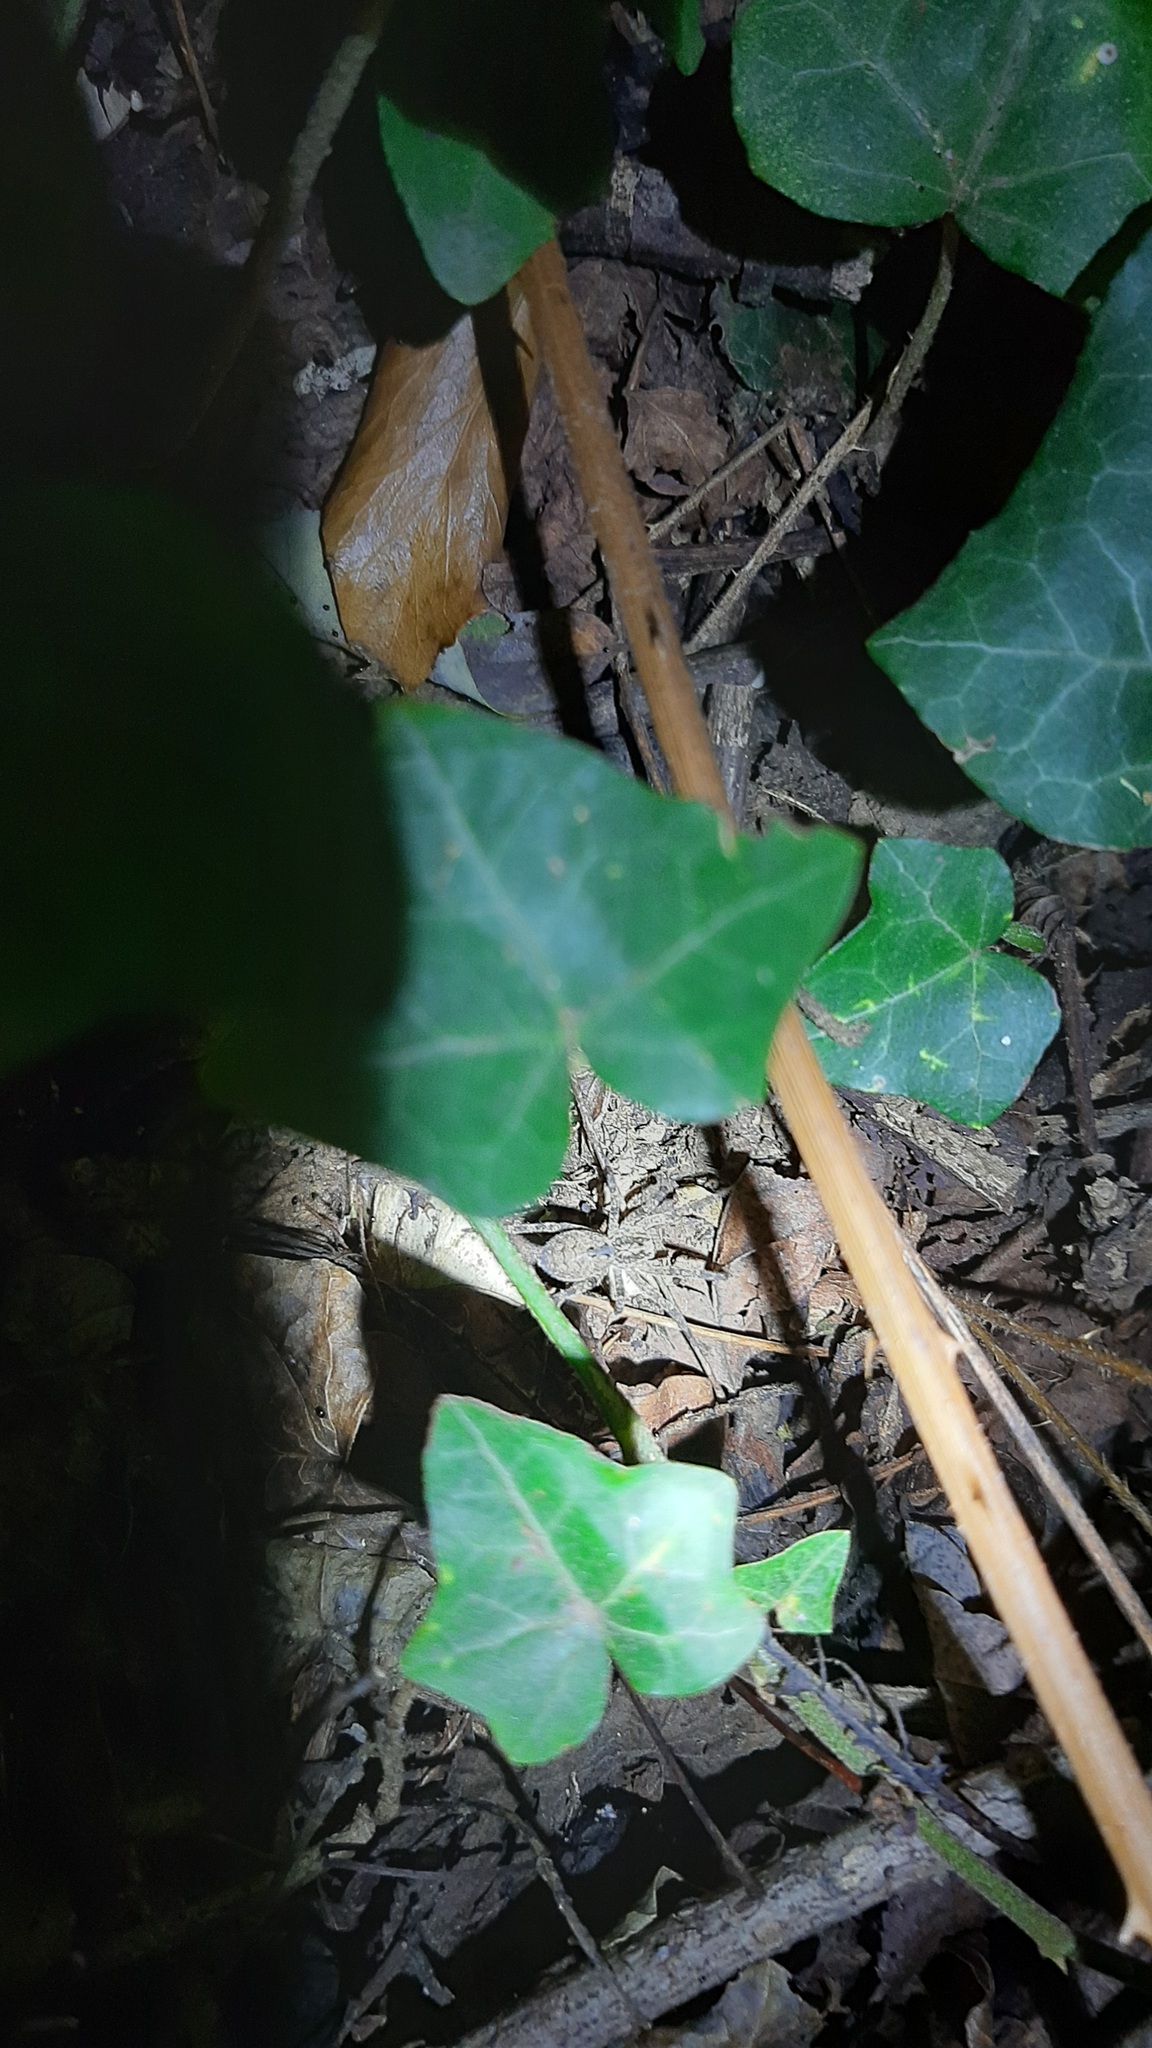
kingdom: Plantae
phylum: Tracheophyta
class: Magnoliopsida
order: Apiales
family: Araliaceae
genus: Hedera
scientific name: Hedera helix
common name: Ivy
